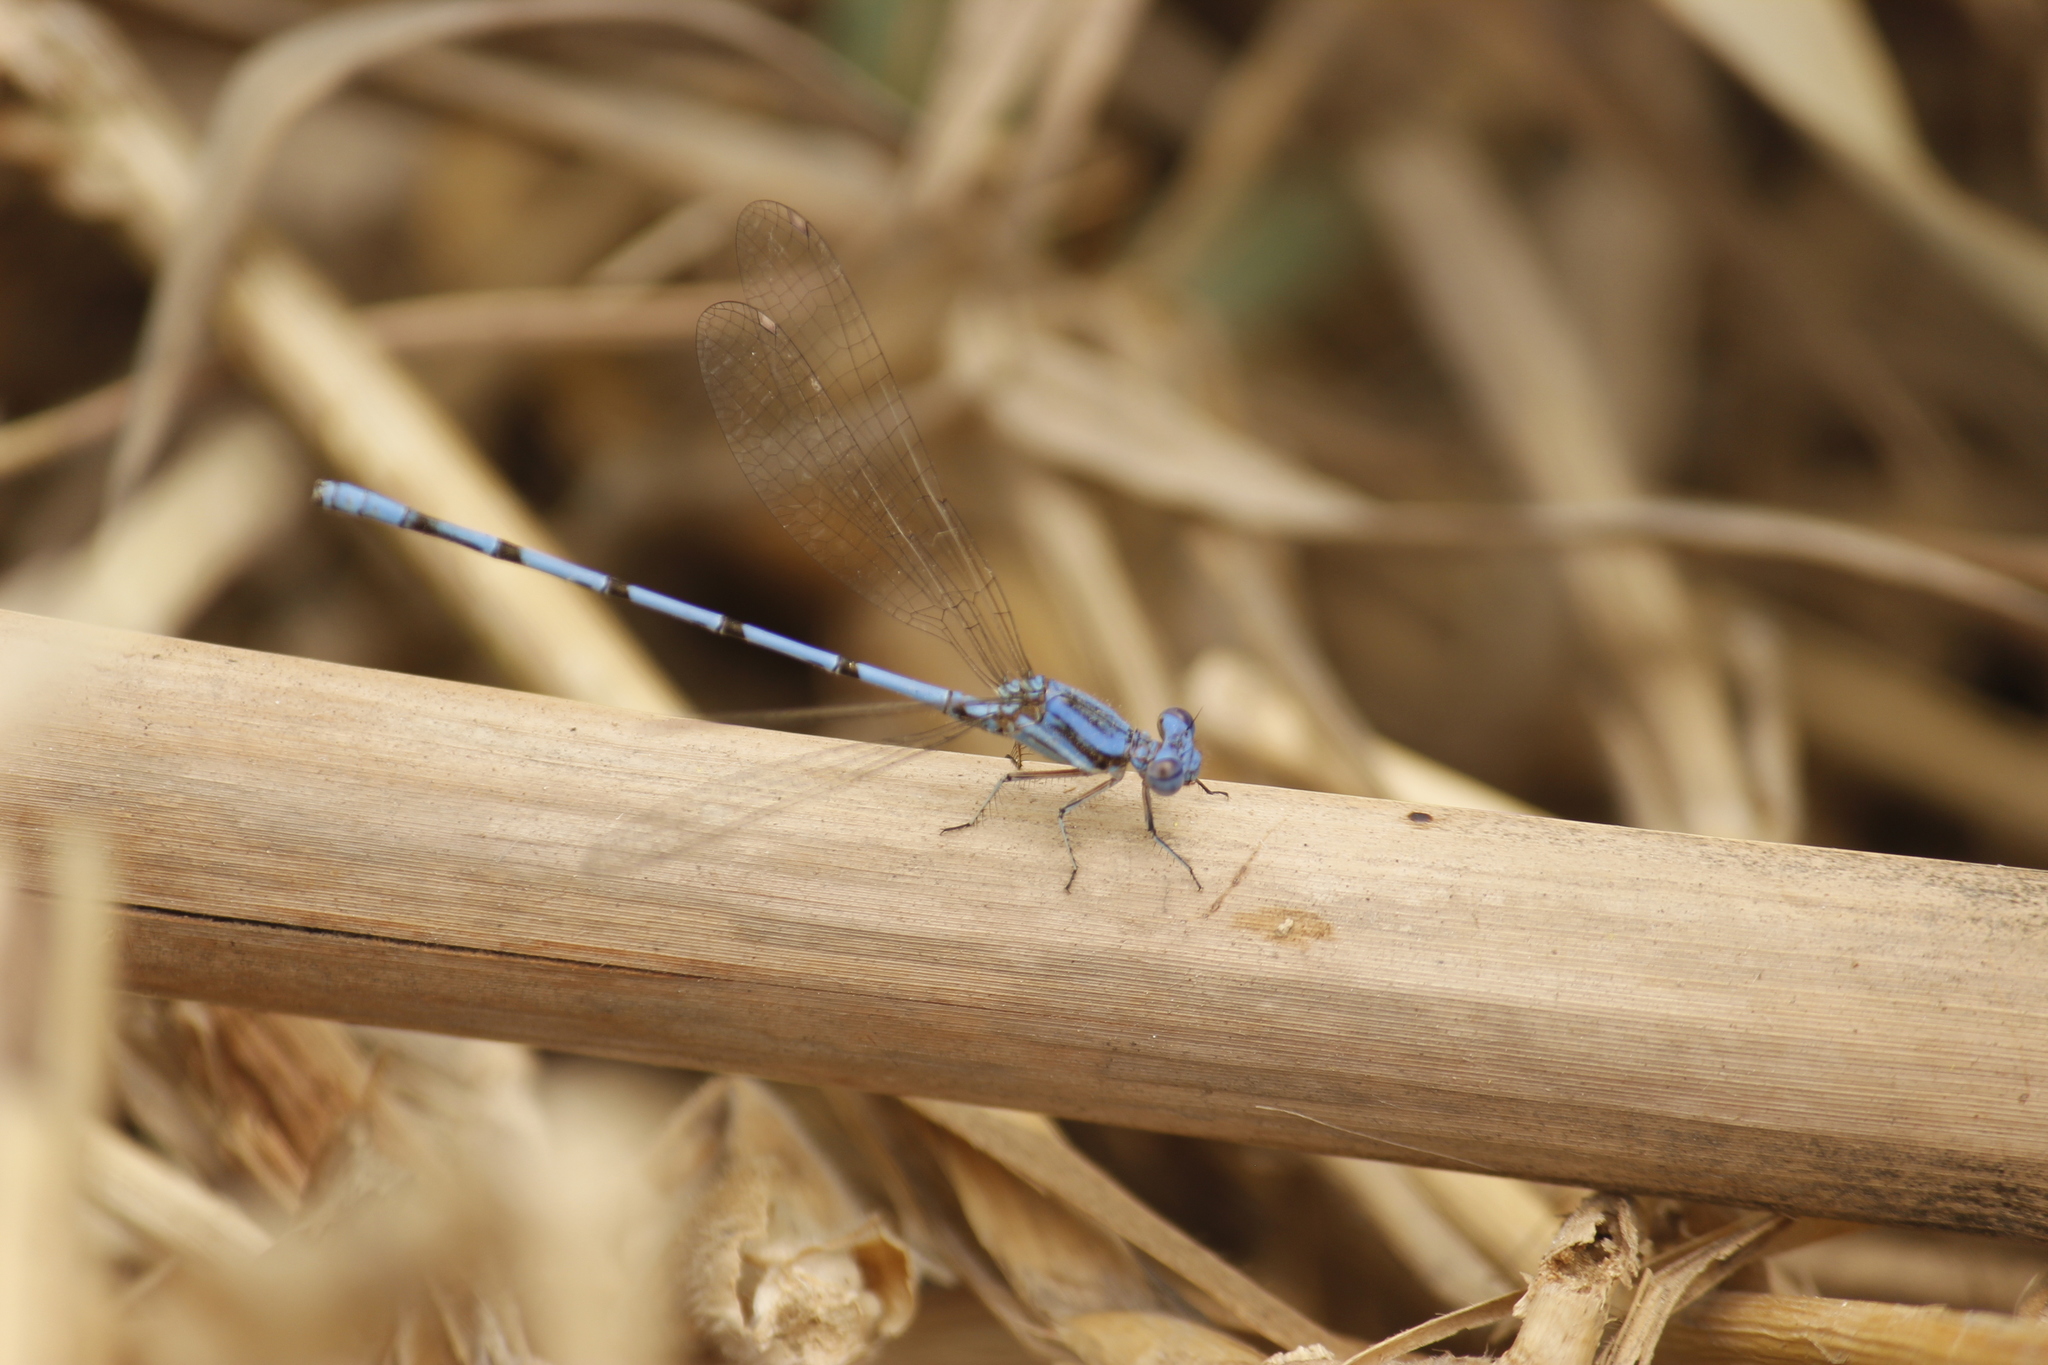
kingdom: Animalia
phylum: Arthropoda
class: Insecta
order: Odonata
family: Coenagrionidae
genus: Argia
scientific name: Argia inculta
